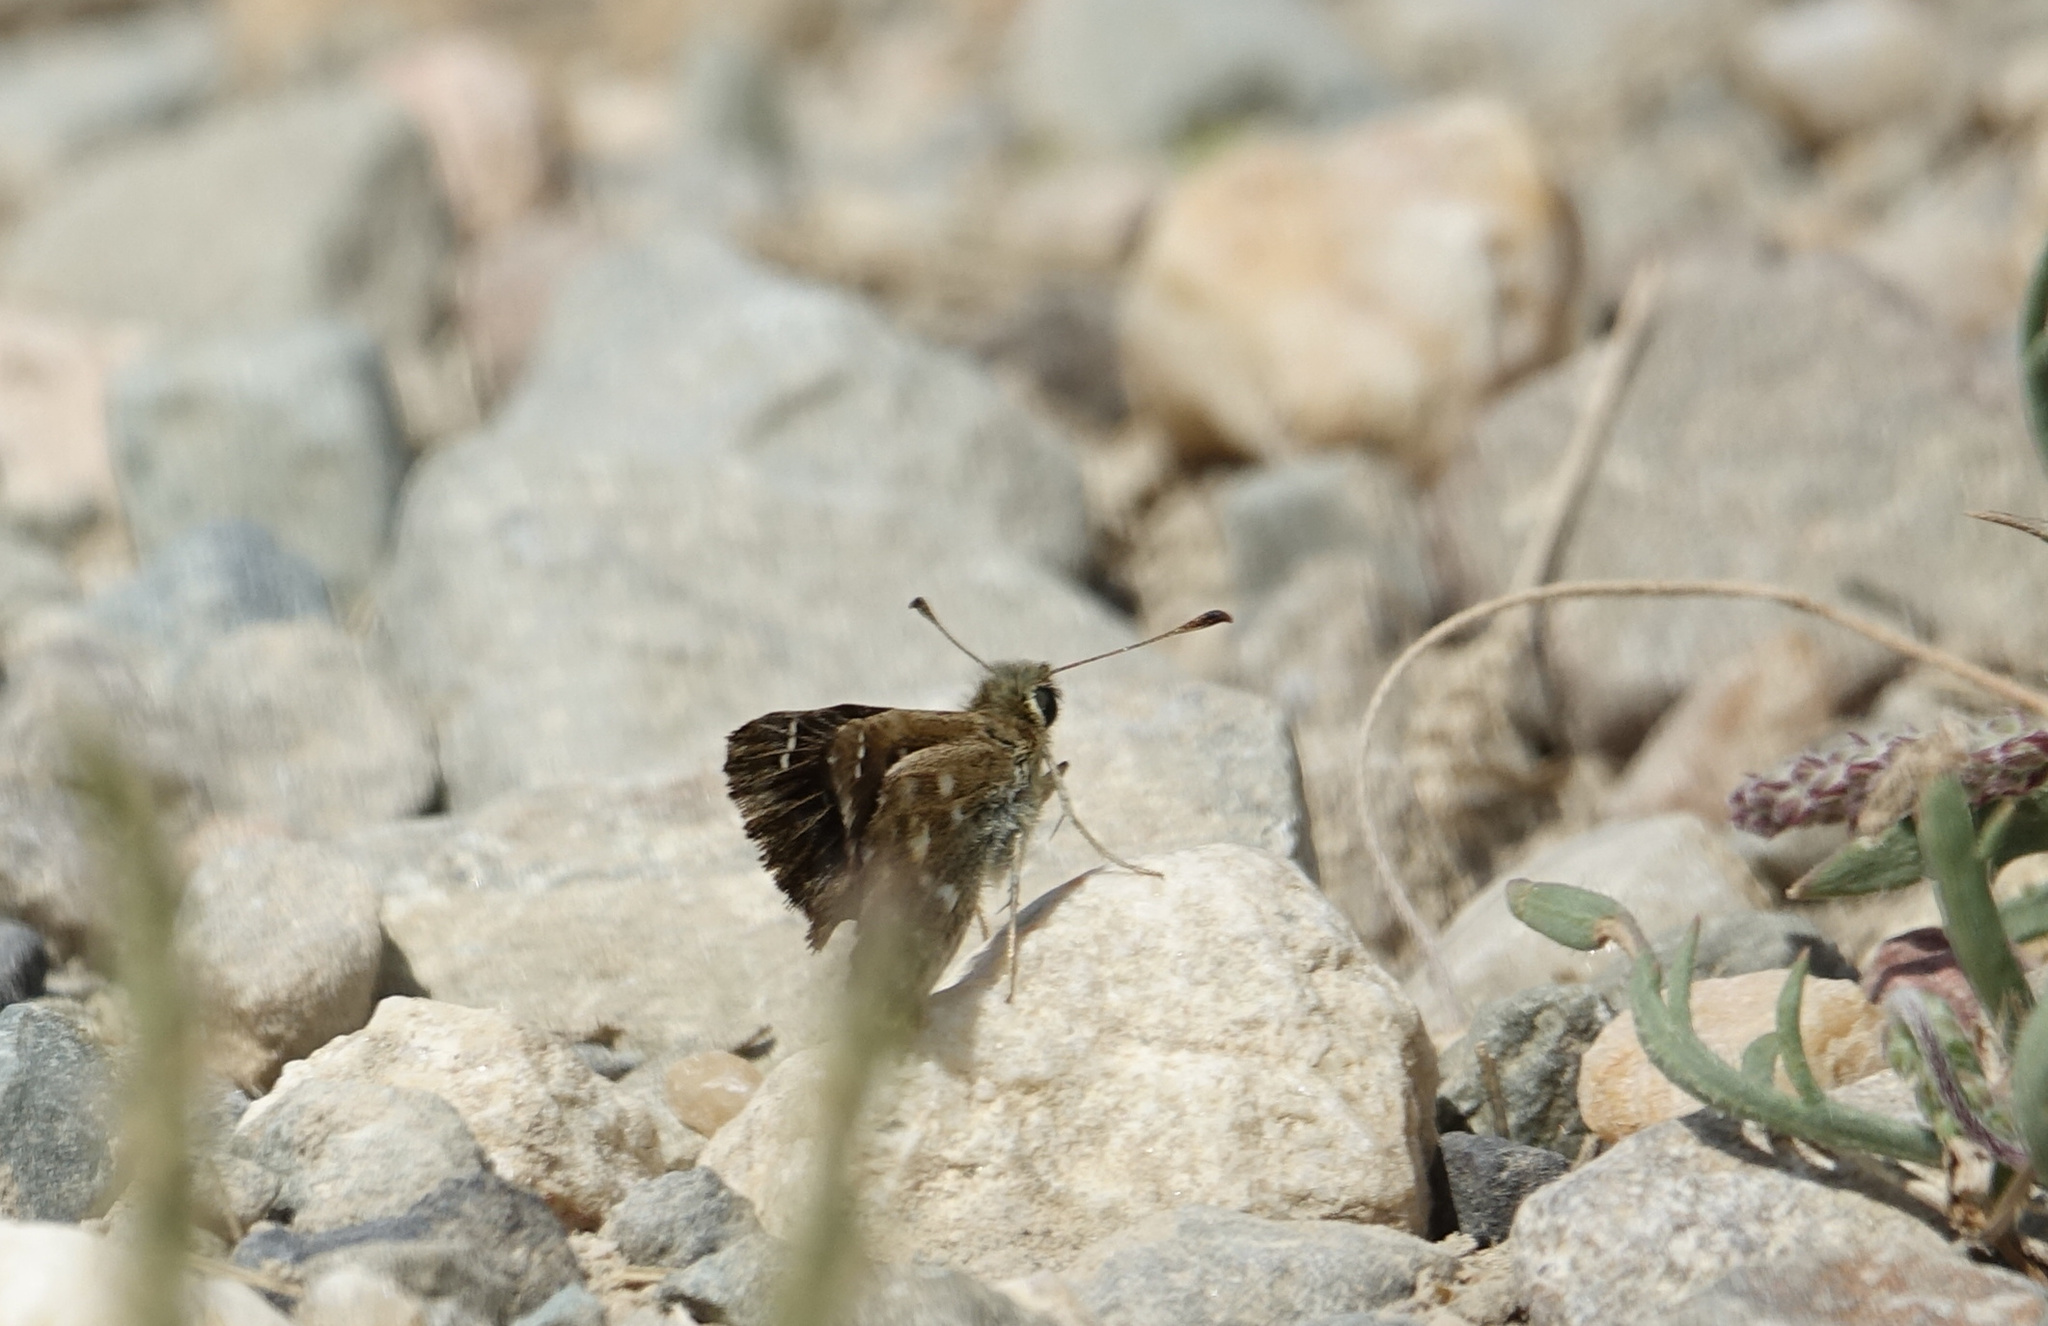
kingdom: Animalia
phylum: Arthropoda
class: Insecta
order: Lepidoptera
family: Hesperiidae
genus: Carcharodus
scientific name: Carcharodus alceae
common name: Mallow skipper
